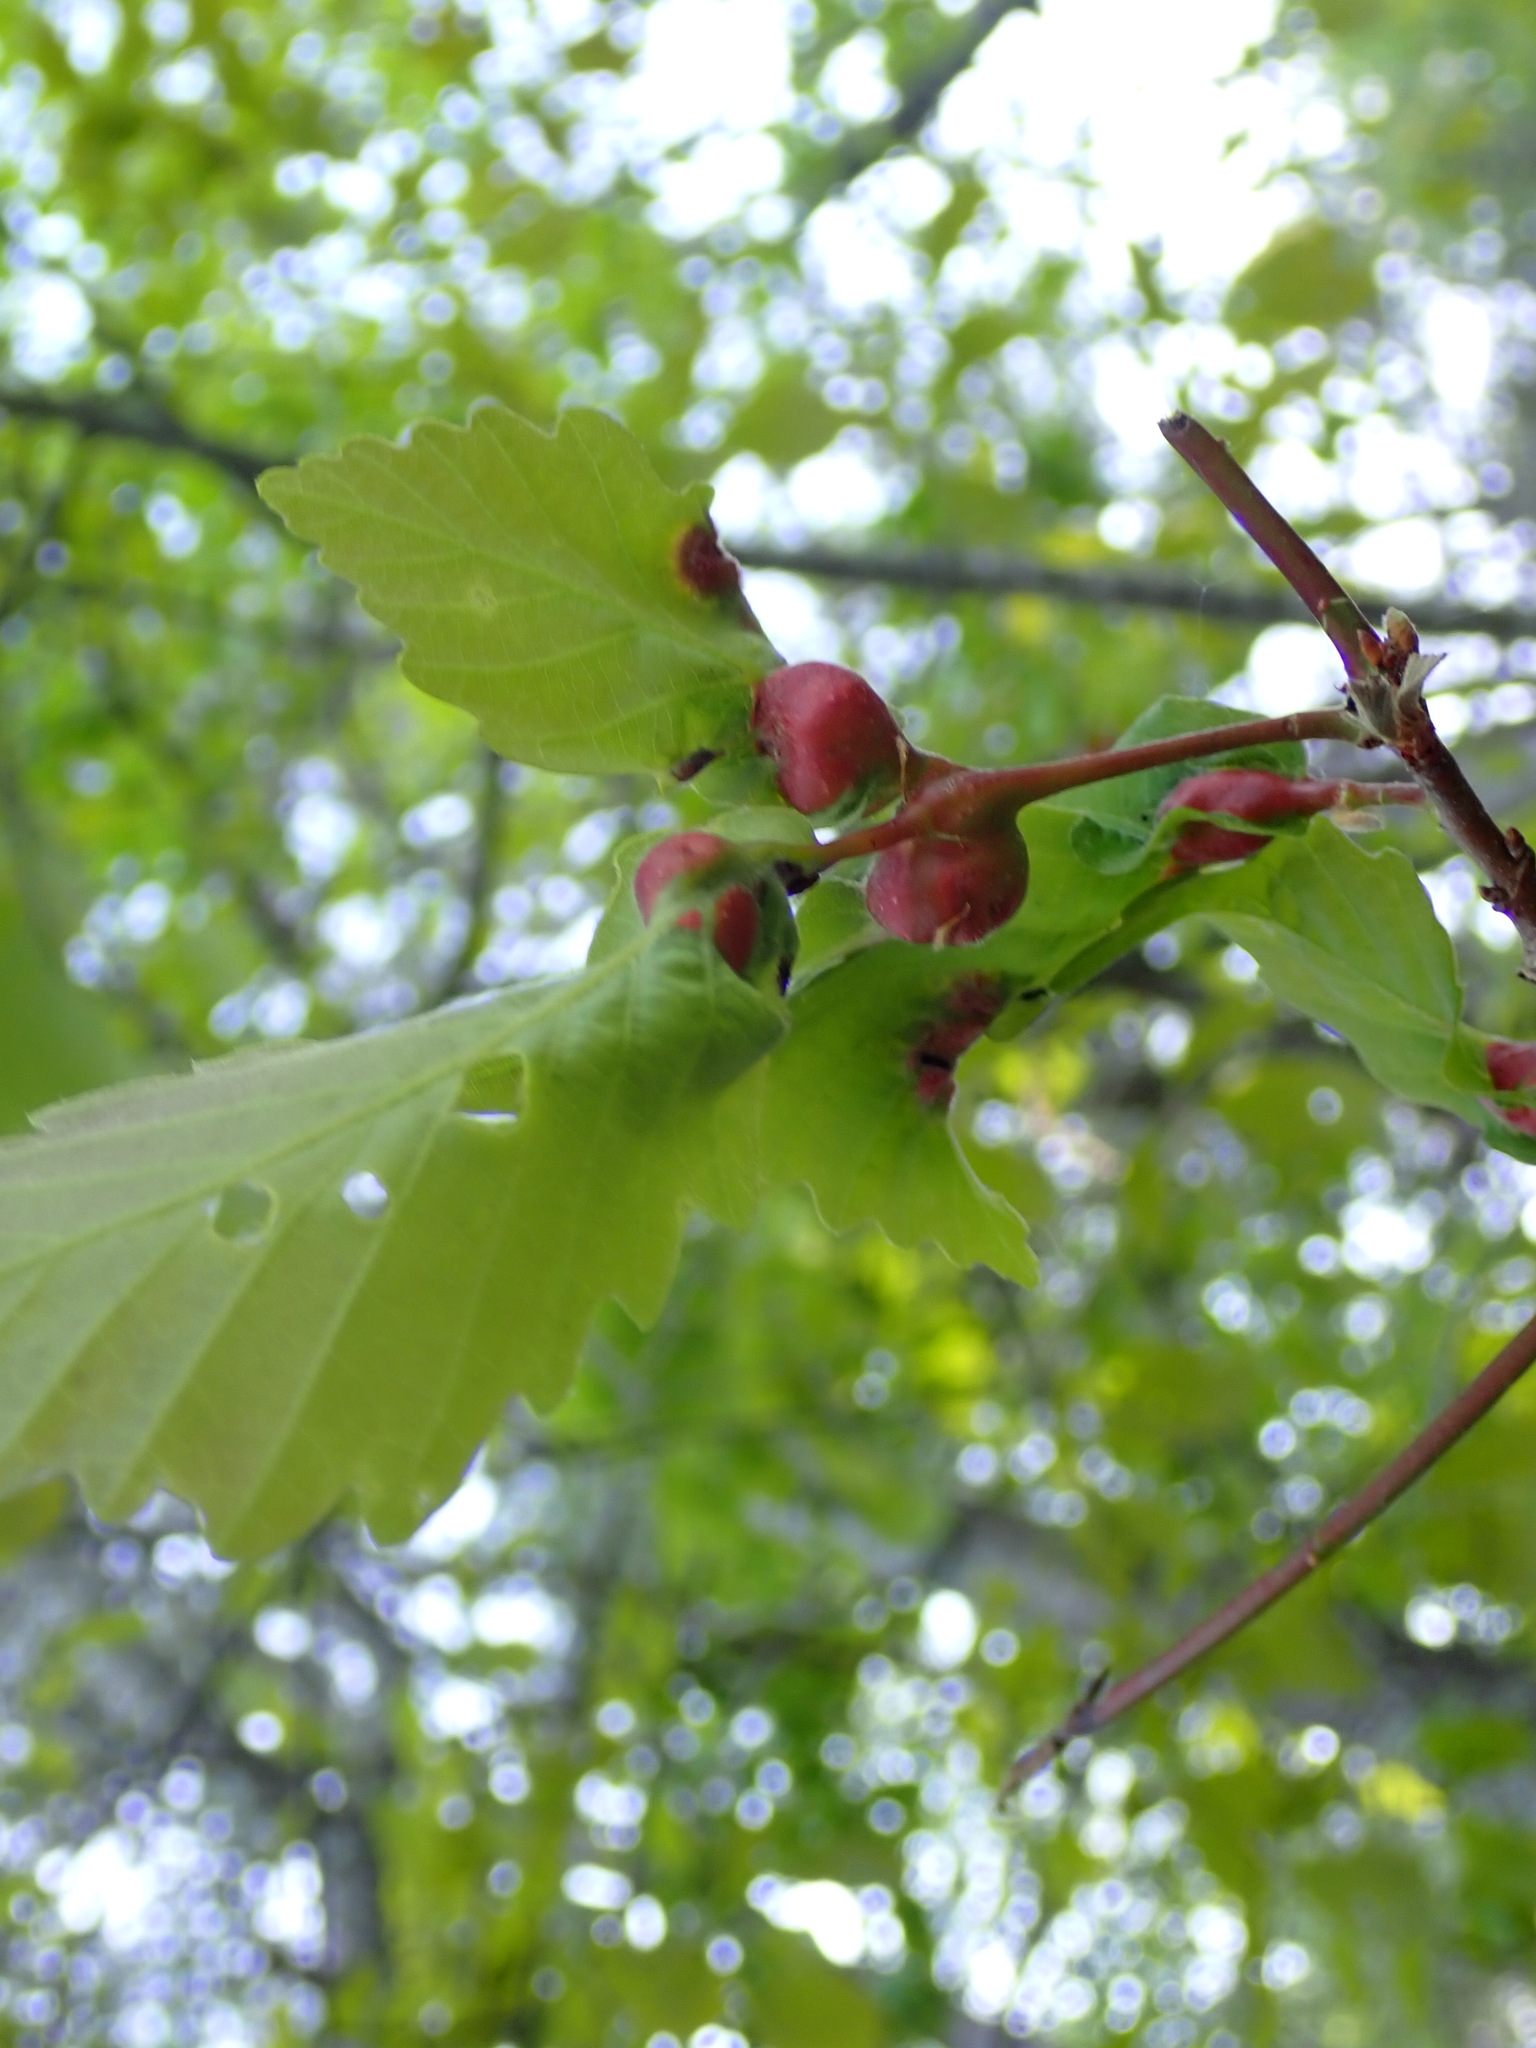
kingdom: Animalia
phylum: Arthropoda
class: Insecta
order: Hymenoptera
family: Cynipidae
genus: Andricus
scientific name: Andricus
